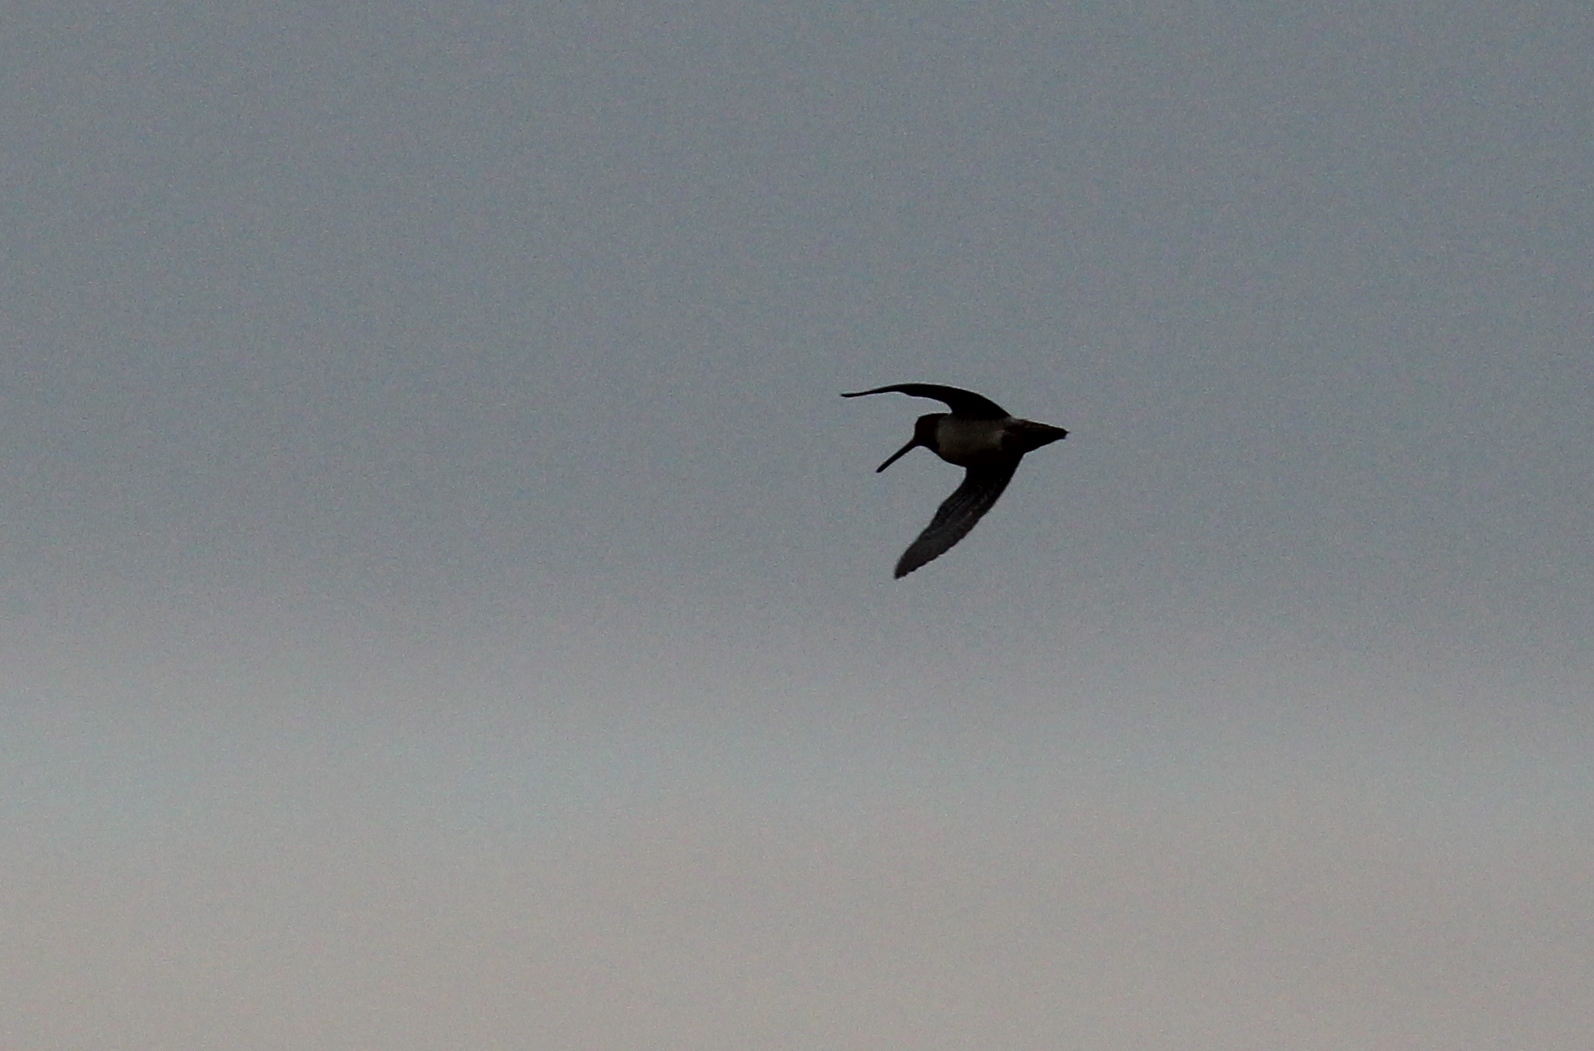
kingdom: Animalia
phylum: Chordata
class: Aves
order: Charadriiformes
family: Scolopacidae
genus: Gallinago
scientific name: Gallinago delicata
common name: Wilson's snipe
